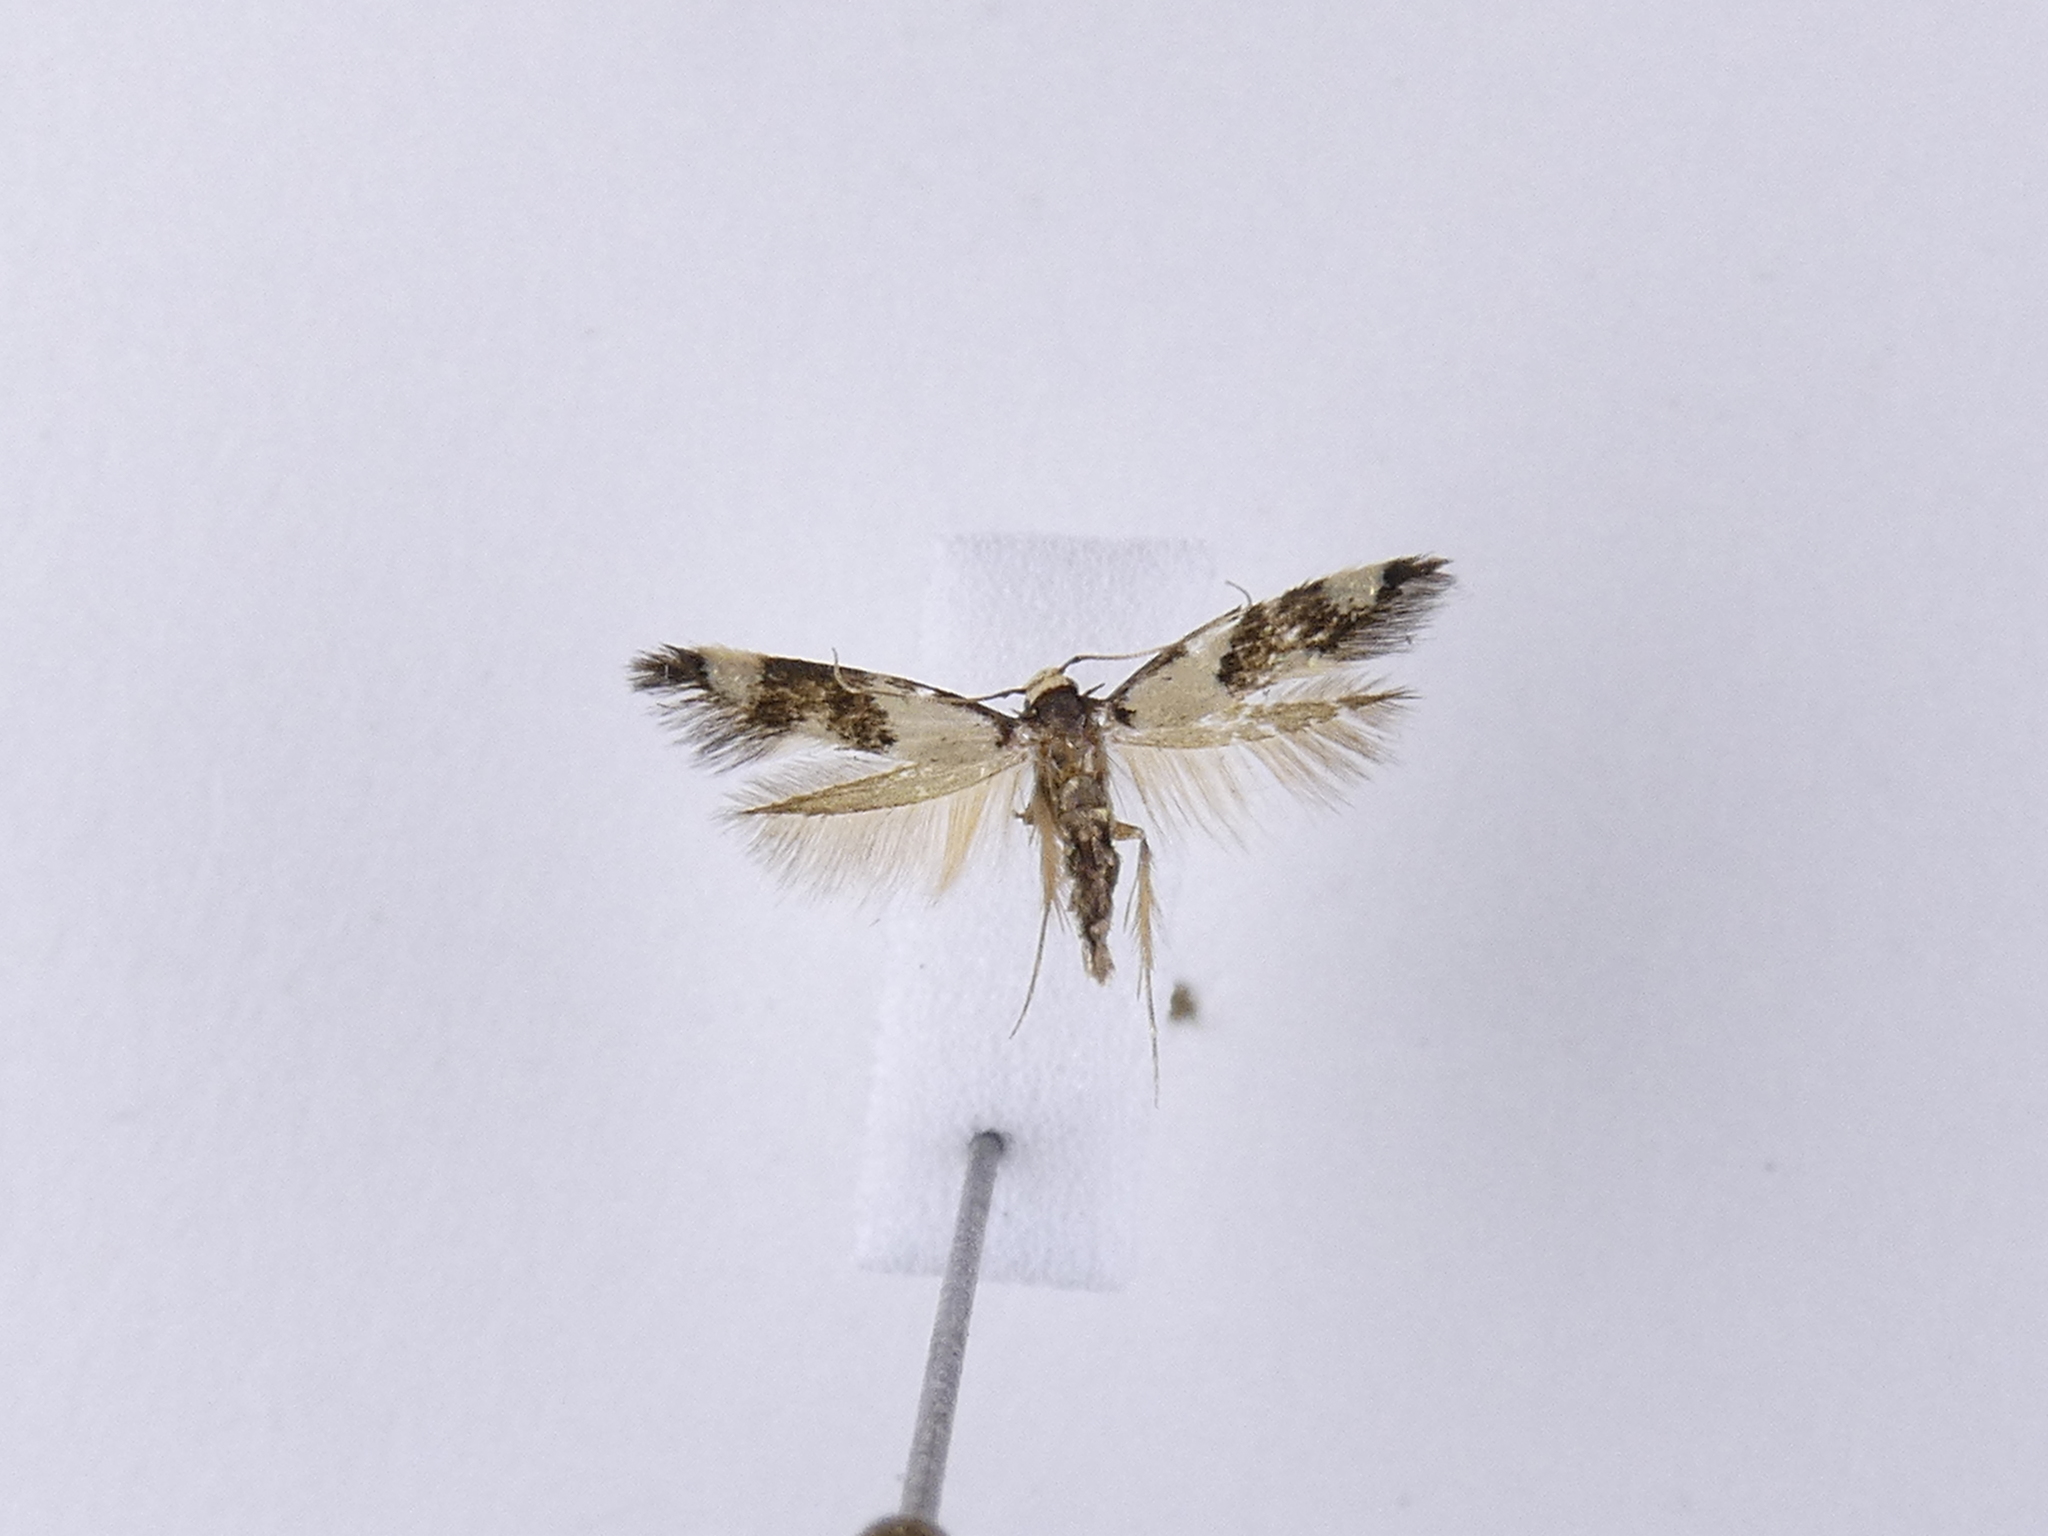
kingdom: Animalia
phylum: Arthropoda
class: Insecta
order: Lepidoptera
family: Tineidae
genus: Opogona
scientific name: Opogona comptella
